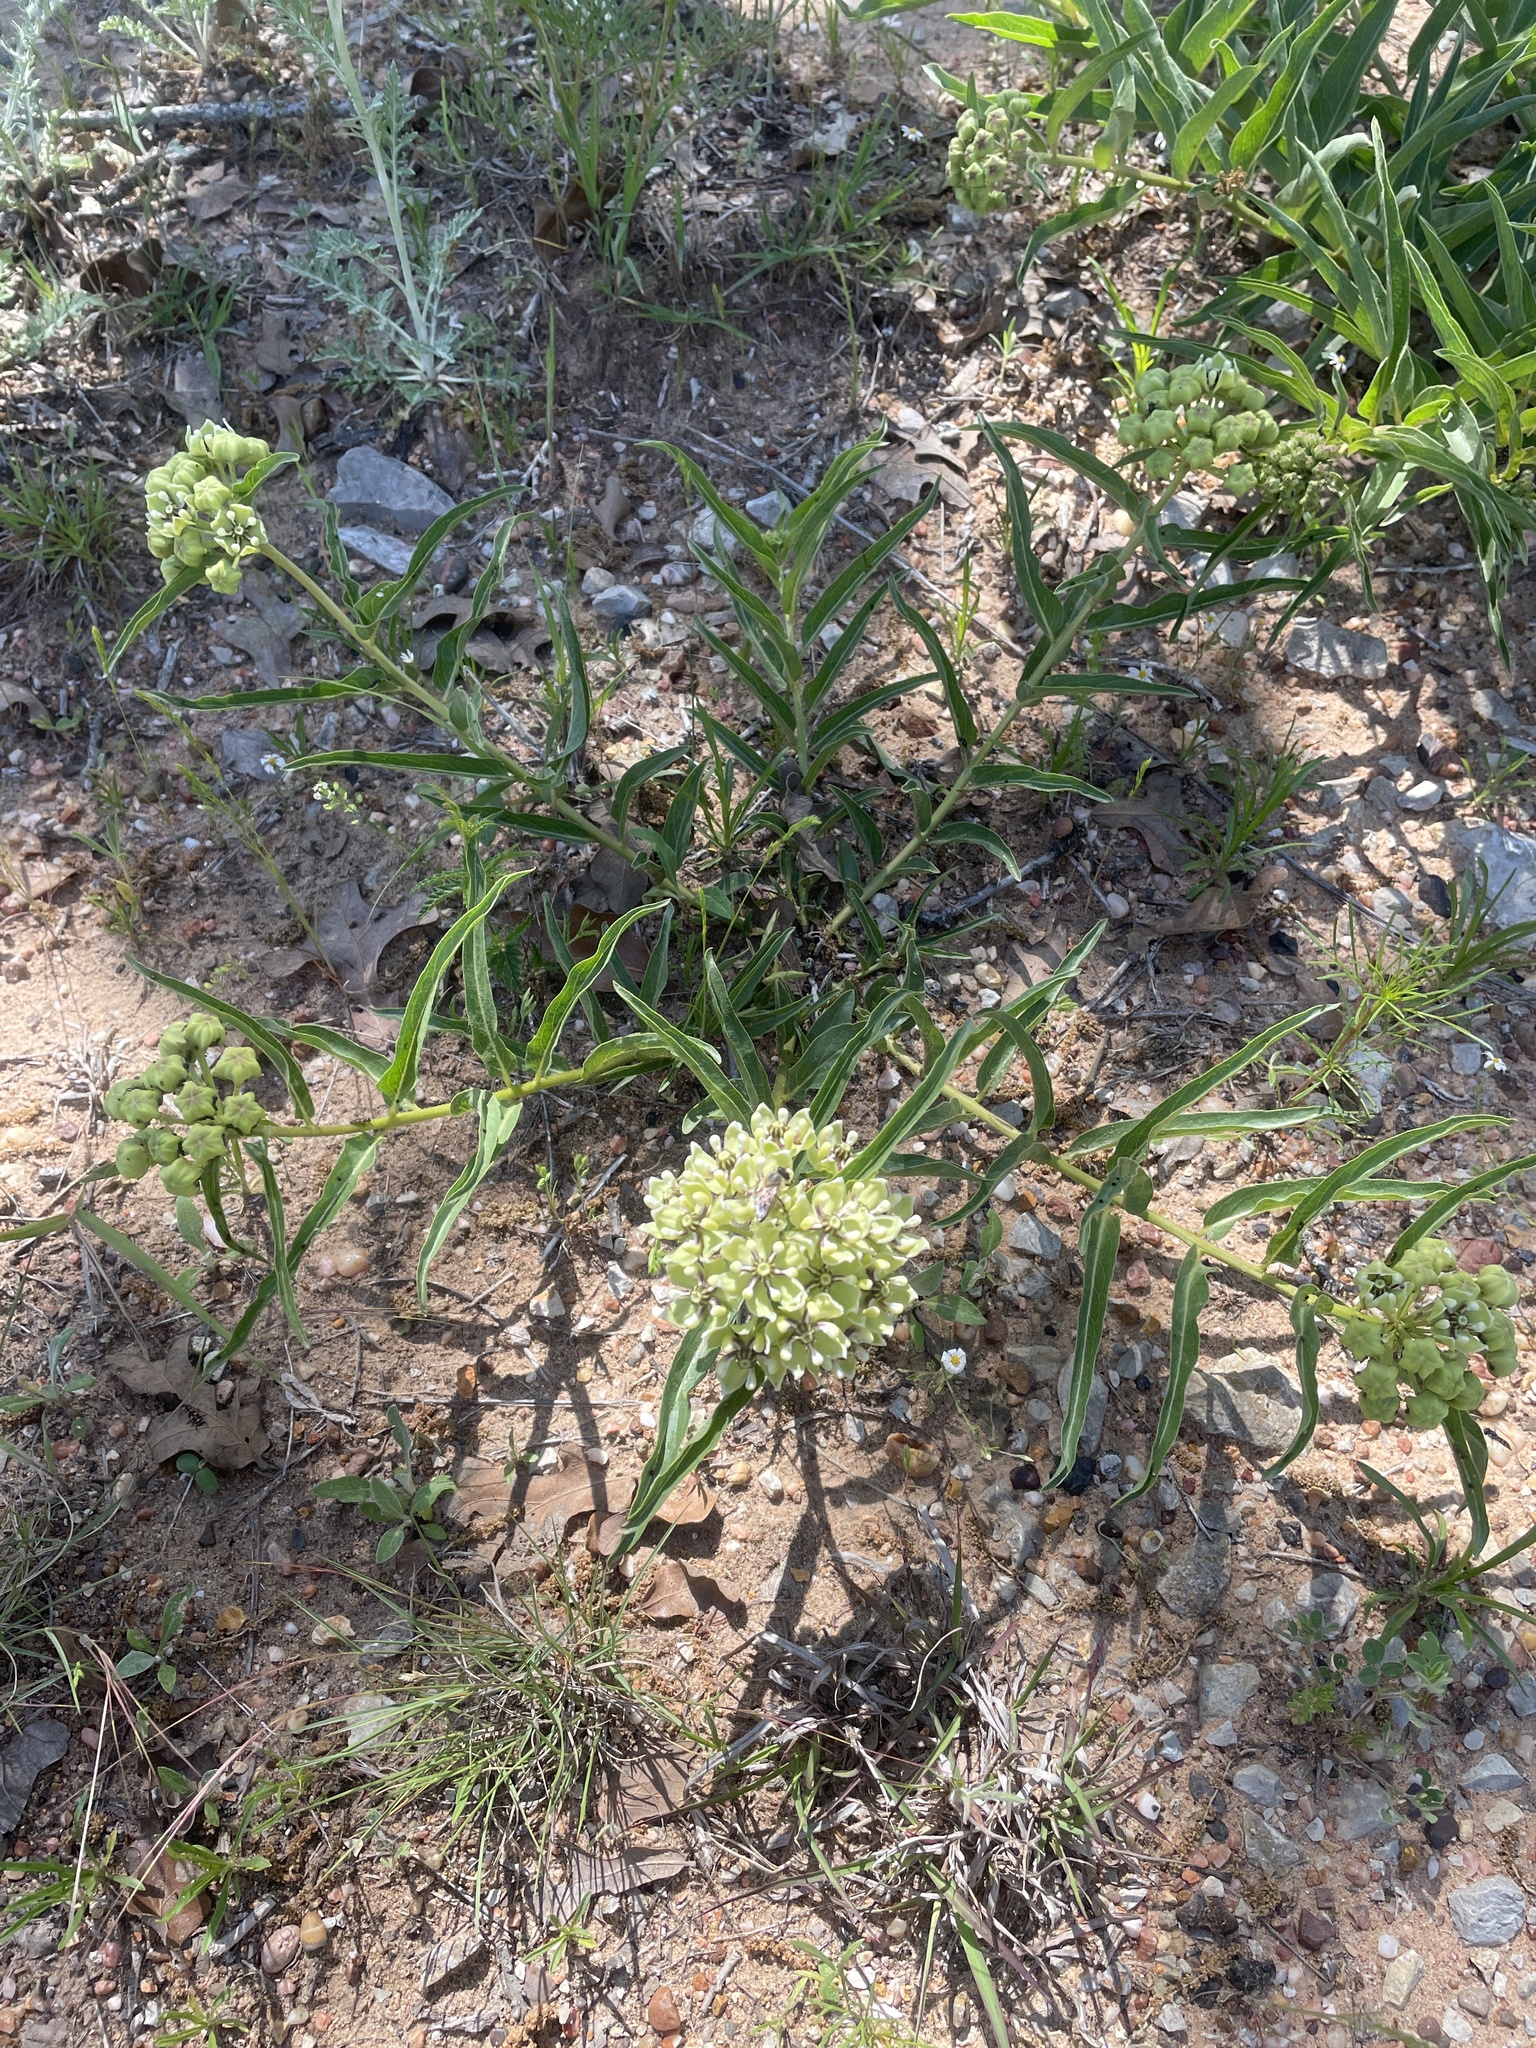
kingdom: Plantae
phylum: Tracheophyta
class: Magnoliopsida
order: Gentianales
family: Apocynaceae
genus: Asclepias
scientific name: Asclepias asperula
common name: Antelope horns
